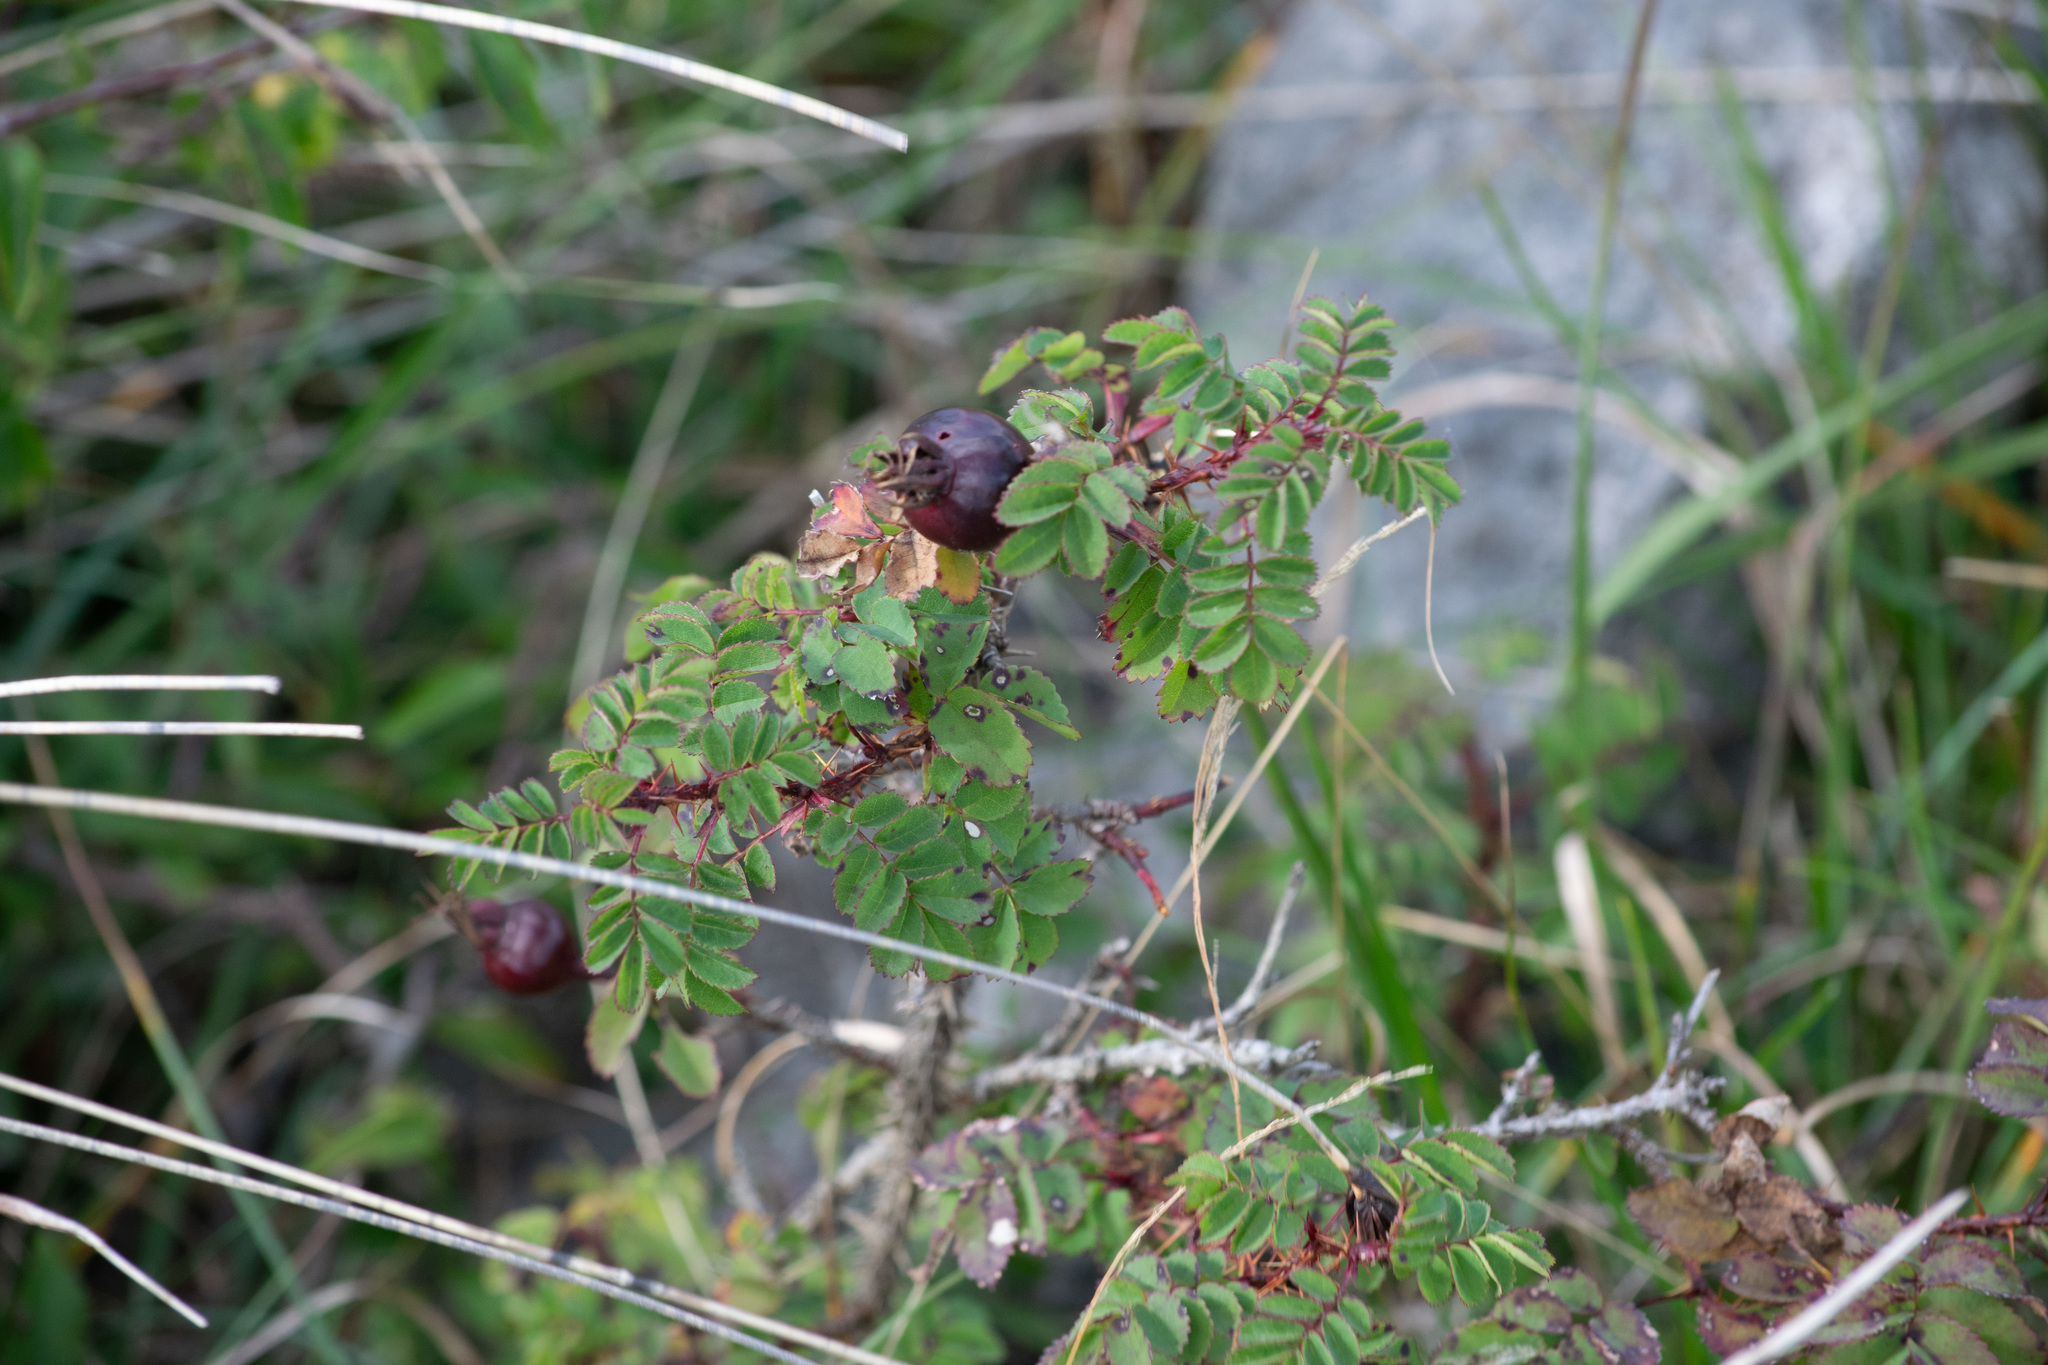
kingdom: Plantae
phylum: Tracheophyta
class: Magnoliopsida
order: Rosales
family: Rosaceae
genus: Rosa
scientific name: Rosa spinosissima
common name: Burnet rose
